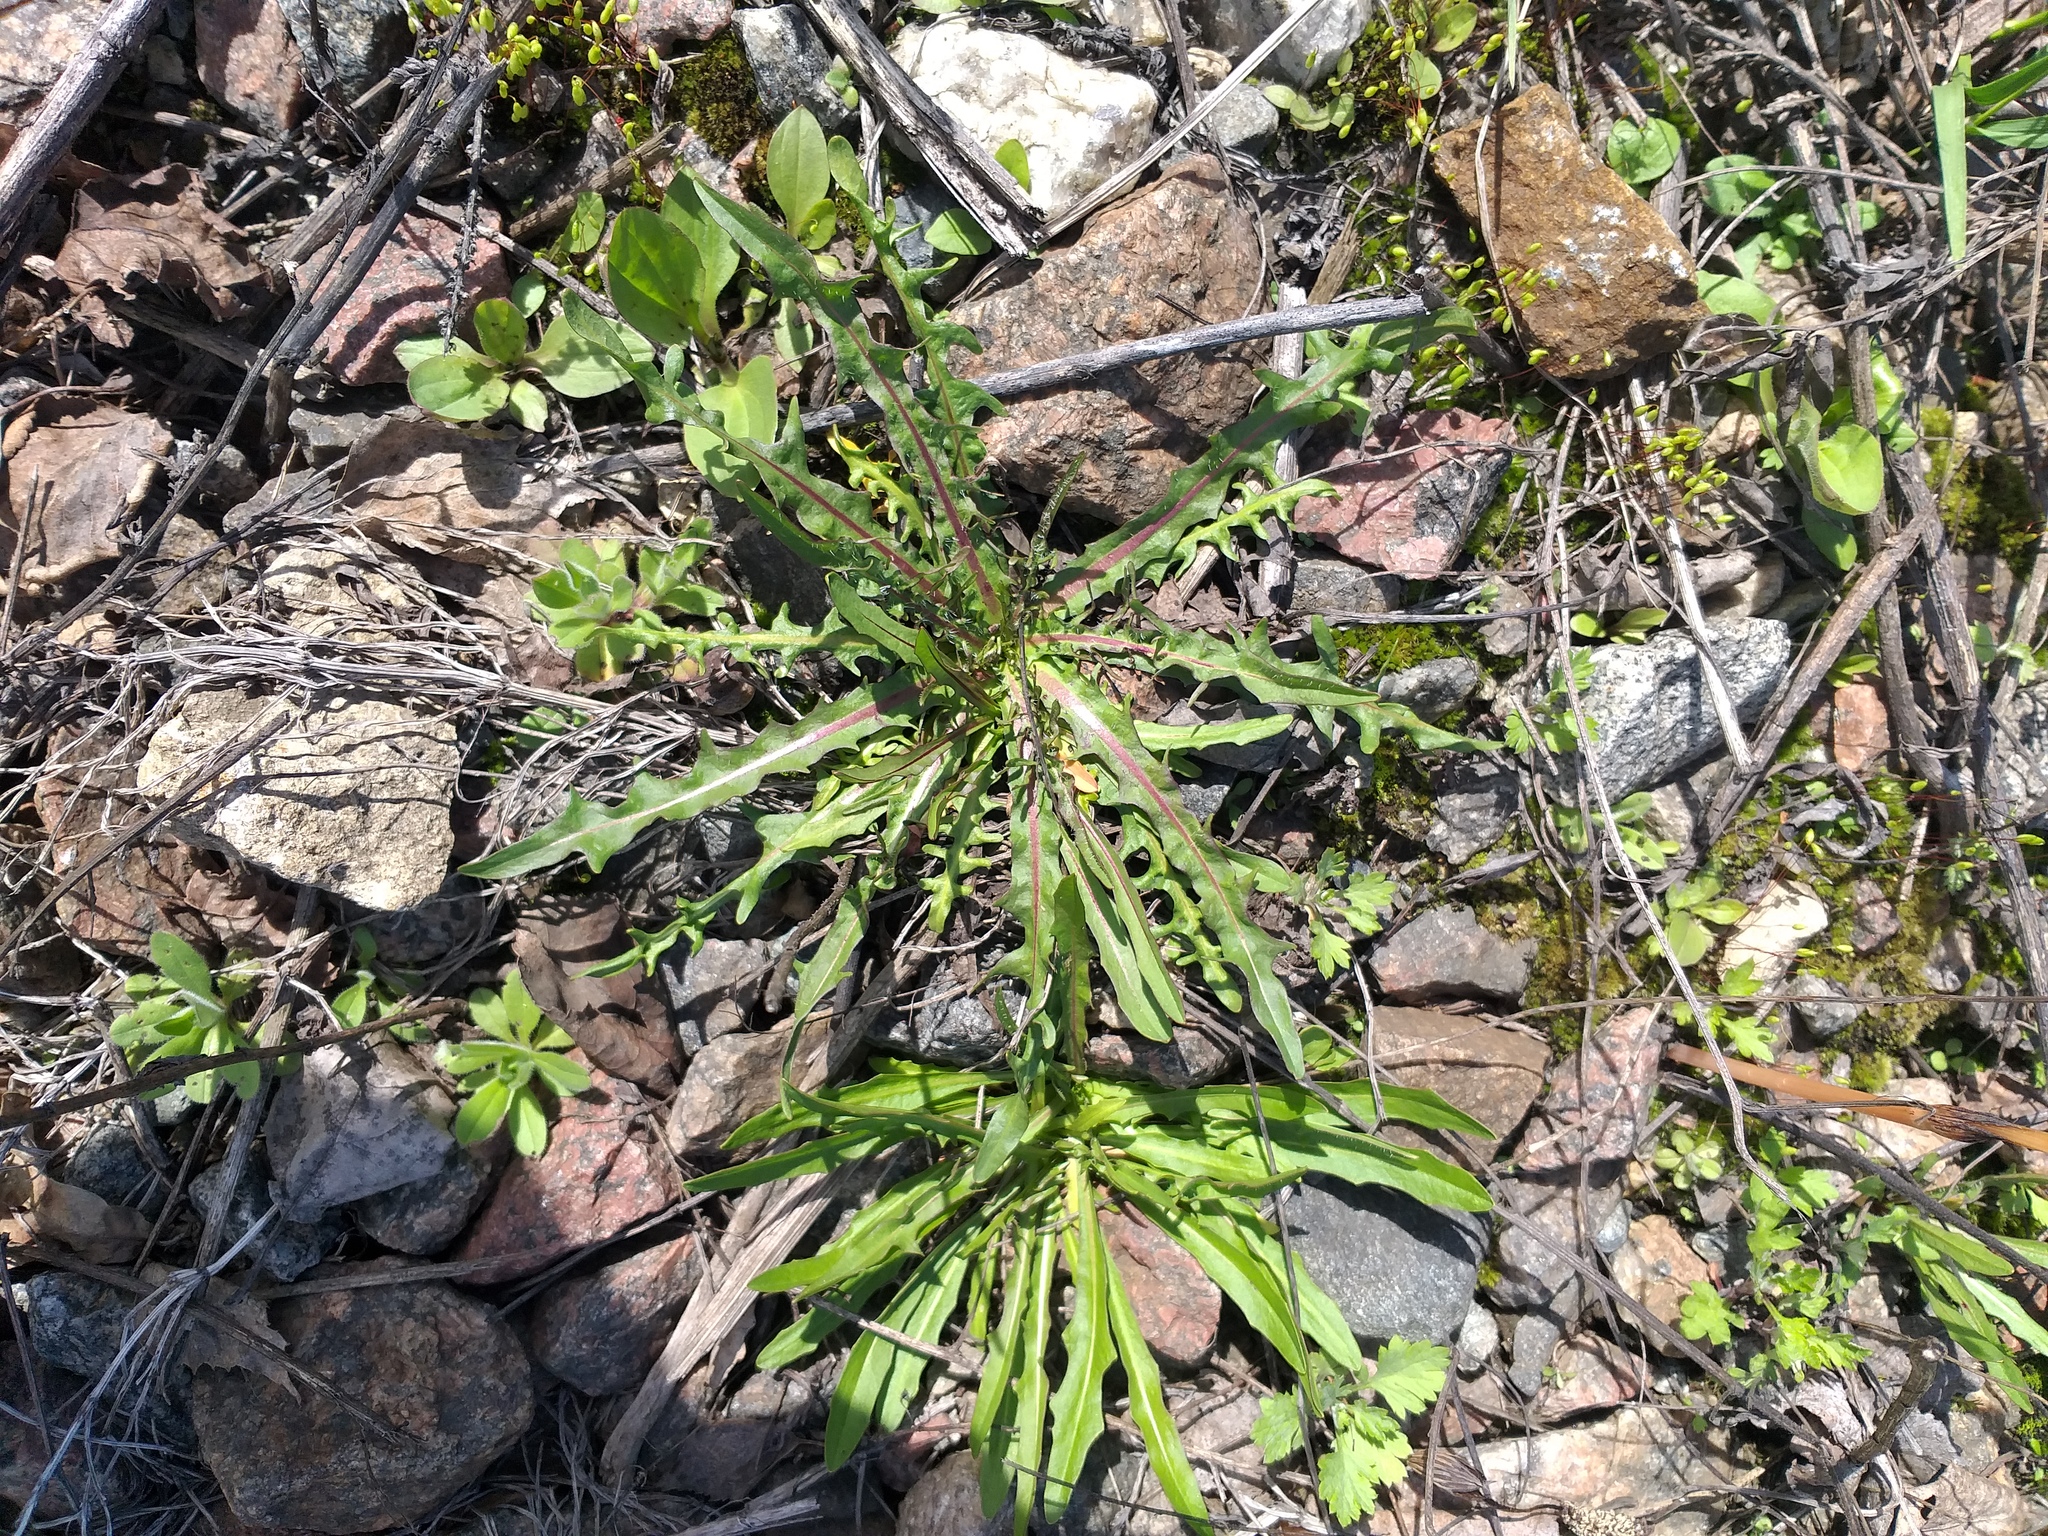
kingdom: Plantae
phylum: Tracheophyta
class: Magnoliopsida
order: Asterales
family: Asteraceae
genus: Scorzoneroides
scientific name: Scorzoneroides autumnalis
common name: Autumn hawkbit
